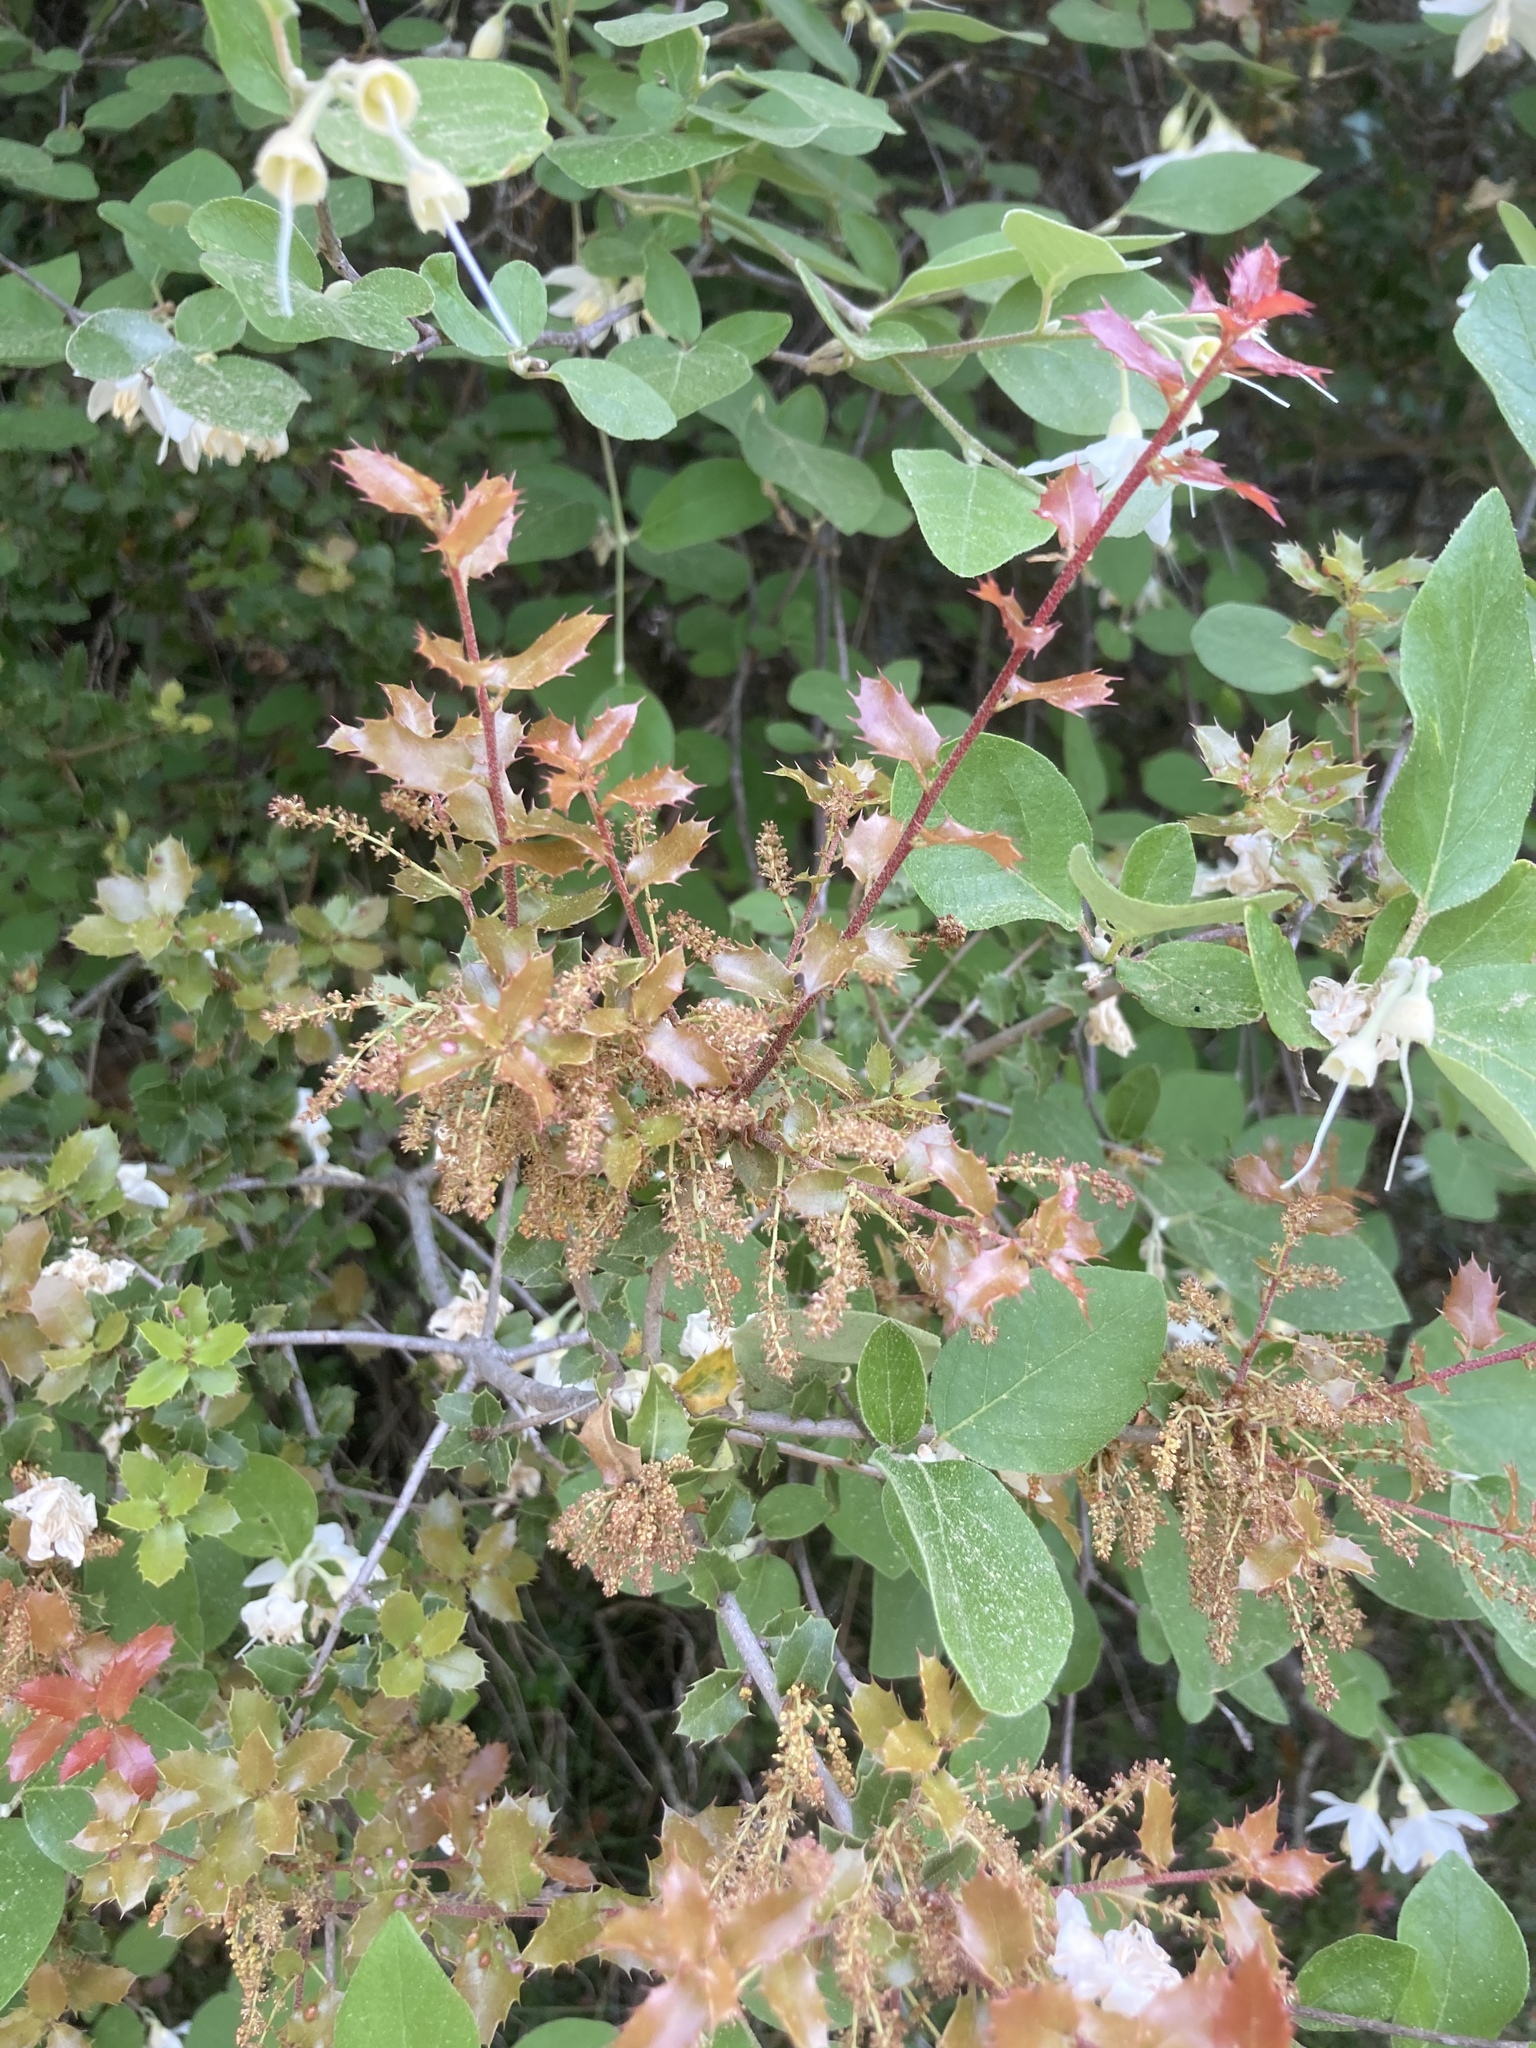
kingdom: Plantae
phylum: Tracheophyta
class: Magnoliopsida
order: Fagales
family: Fagaceae
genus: Quercus
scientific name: Quercus coccifera
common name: Kermes oak
